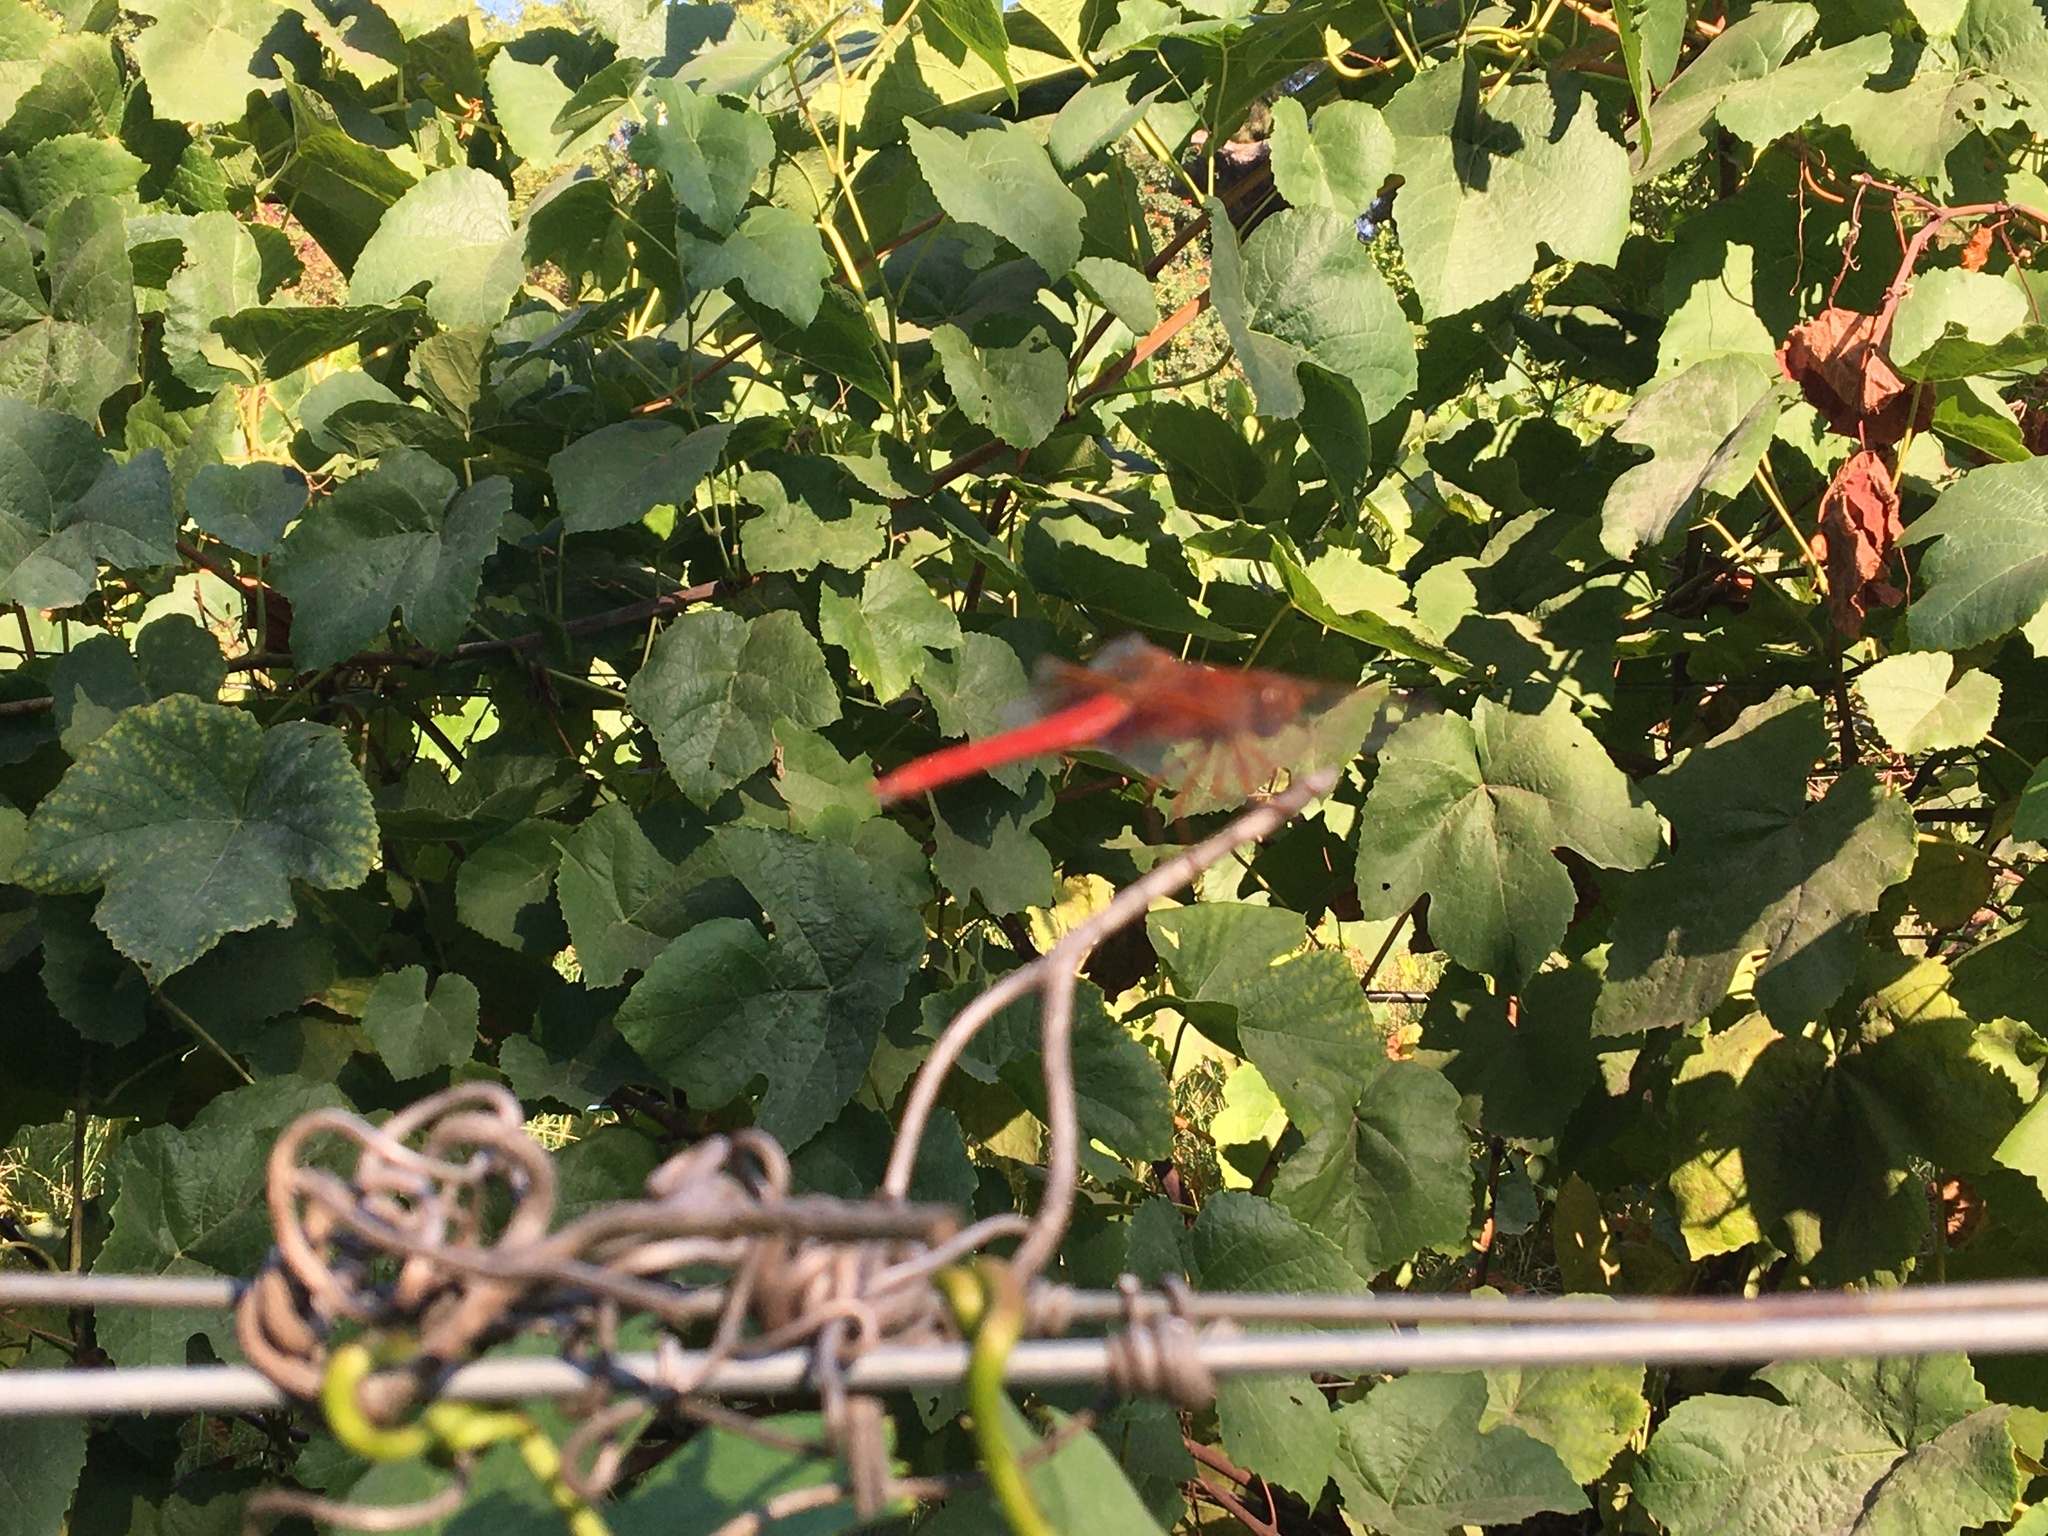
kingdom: Animalia
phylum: Arthropoda
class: Insecta
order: Odonata
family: Libellulidae
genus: Libellula
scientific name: Libellula croceipennis
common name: Neon skimmer
